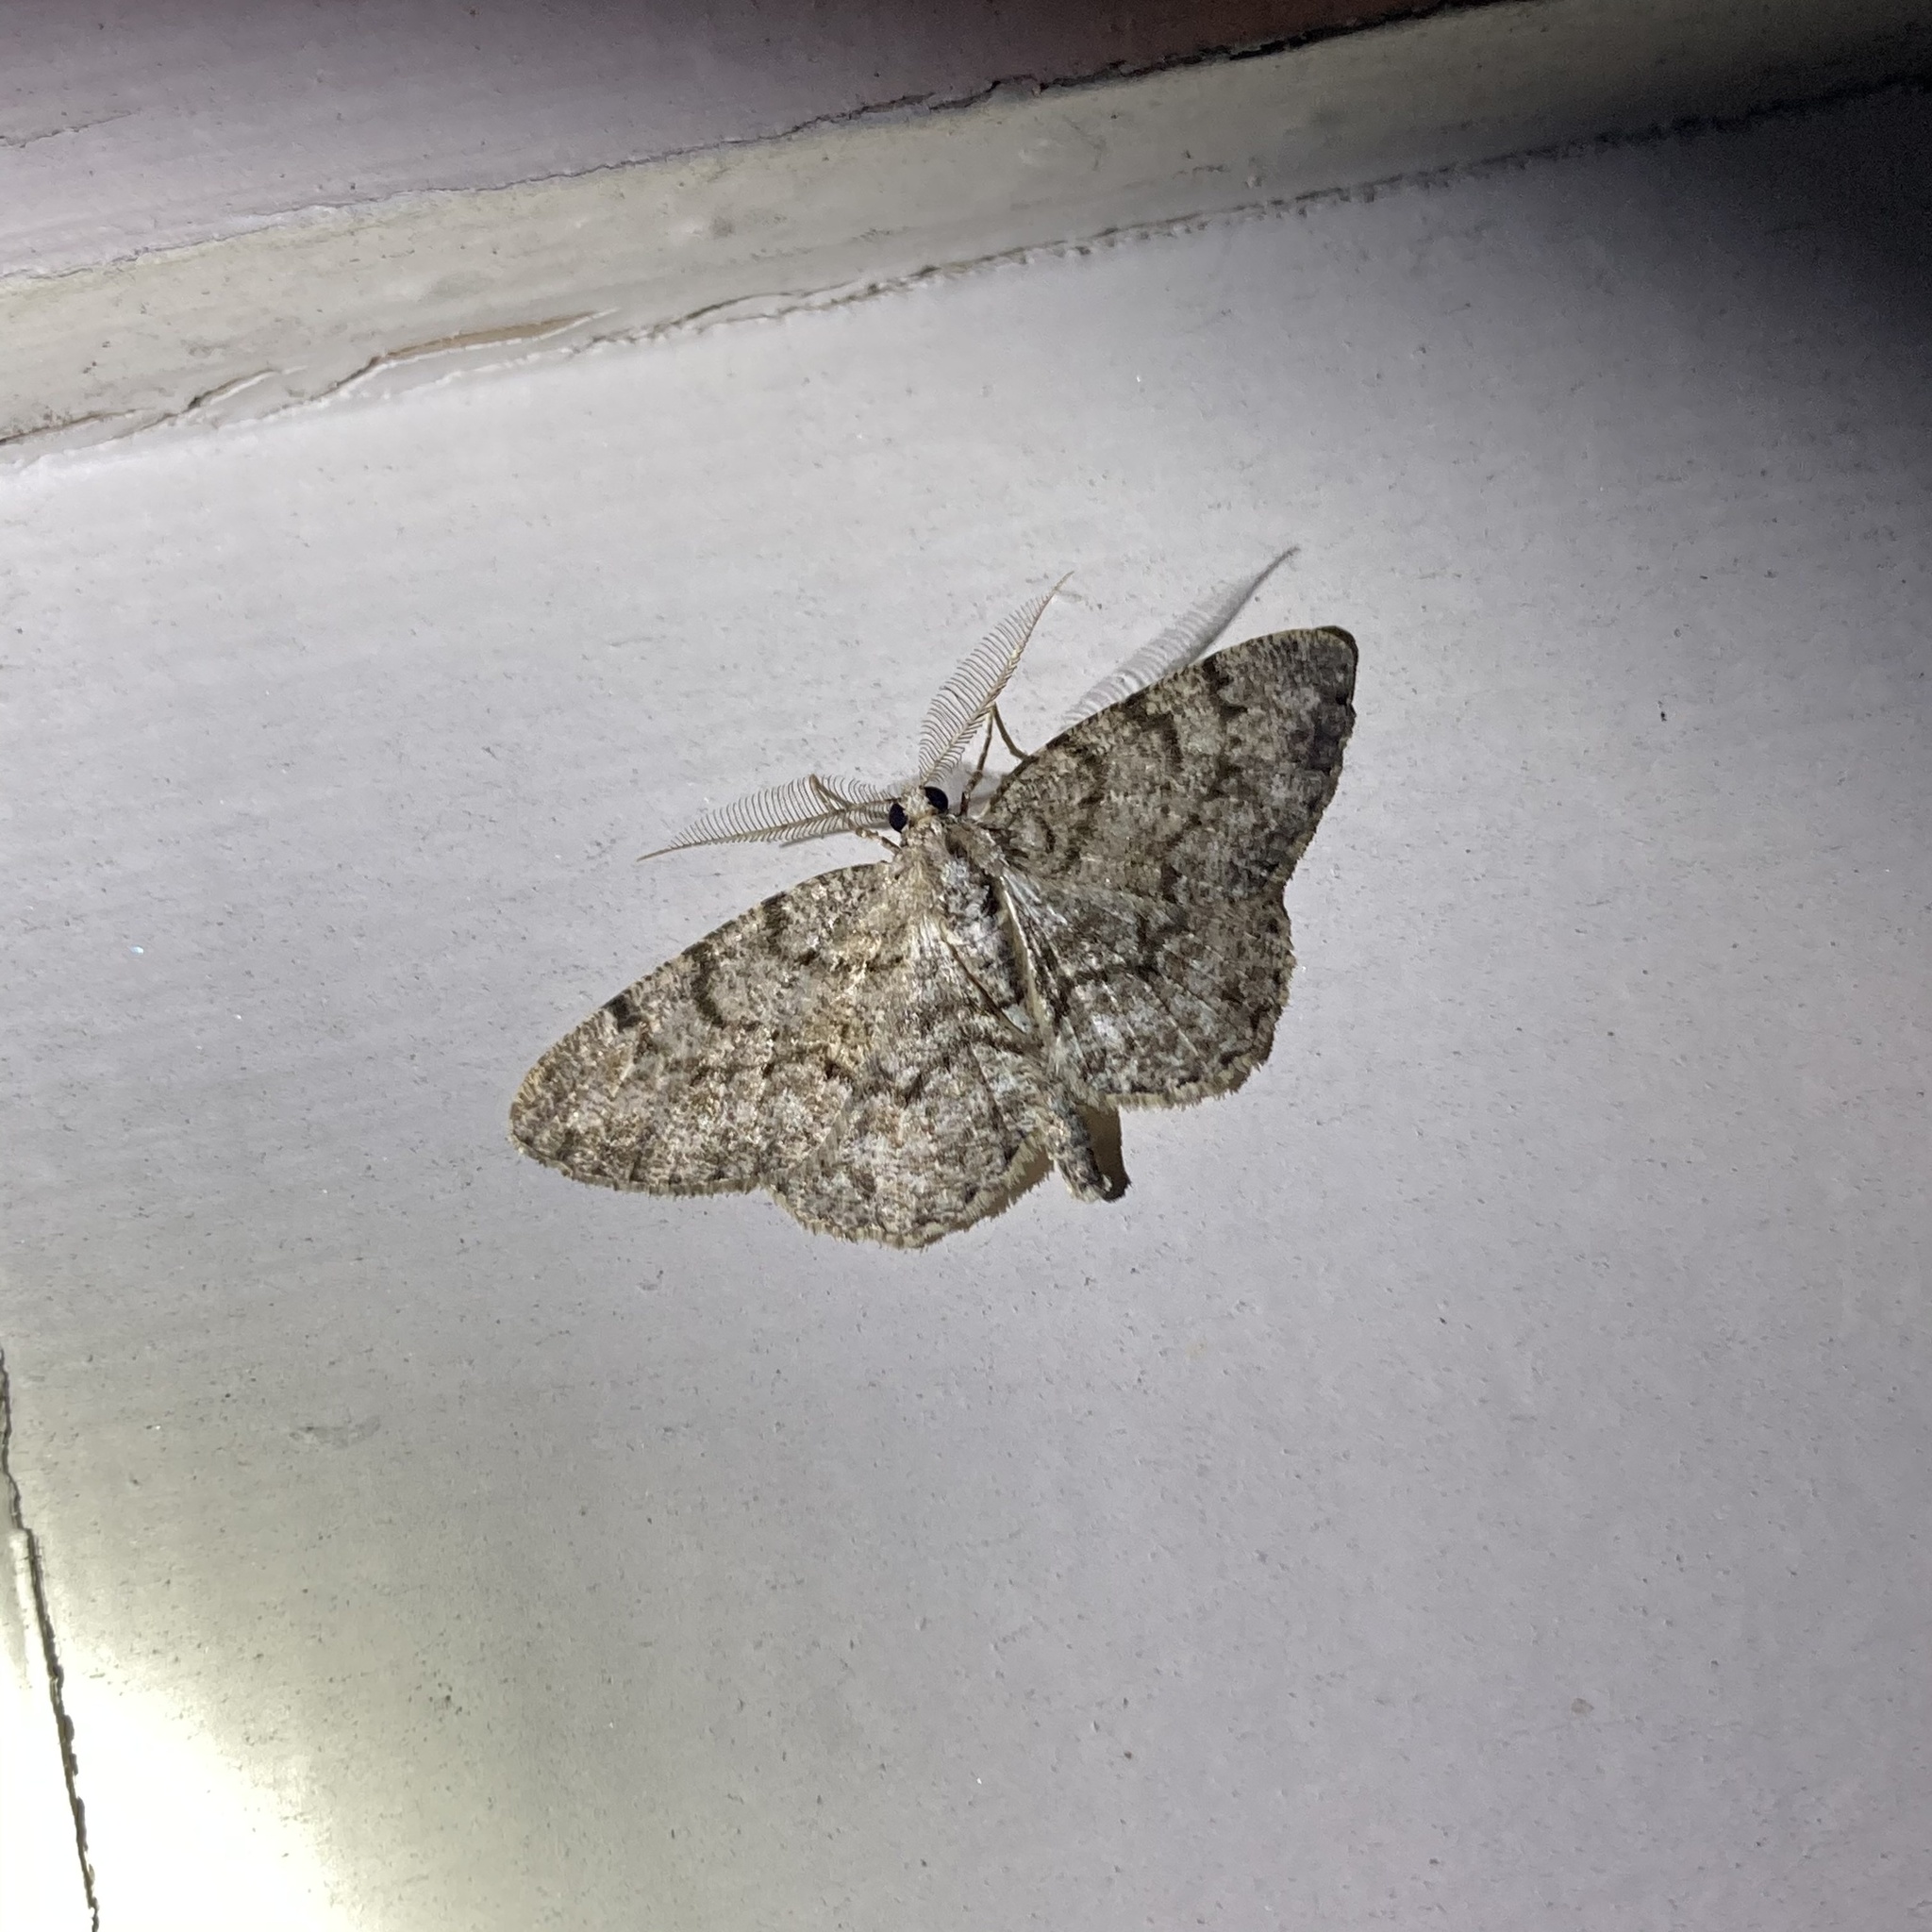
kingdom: Animalia
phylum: Arthropoda
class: Insecta
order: Lepidoptera
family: Geometridae
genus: Protoboarmia
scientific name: Protoboarmia porcelaria
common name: Porcelain gray
